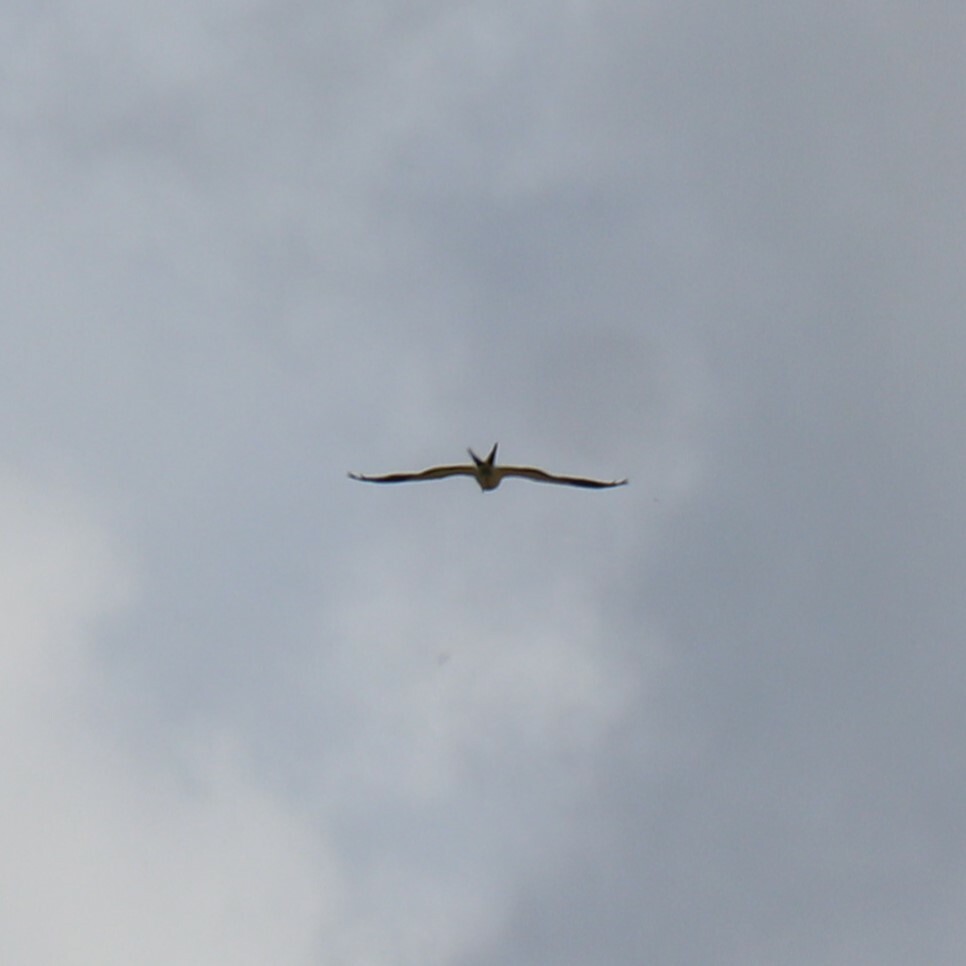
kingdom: Animalia
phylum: Chordata
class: Aves
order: Accipitriformes
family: Accipitridae
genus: Elanoides
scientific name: Elanoides forficatus
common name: Swallow-tailed kite
